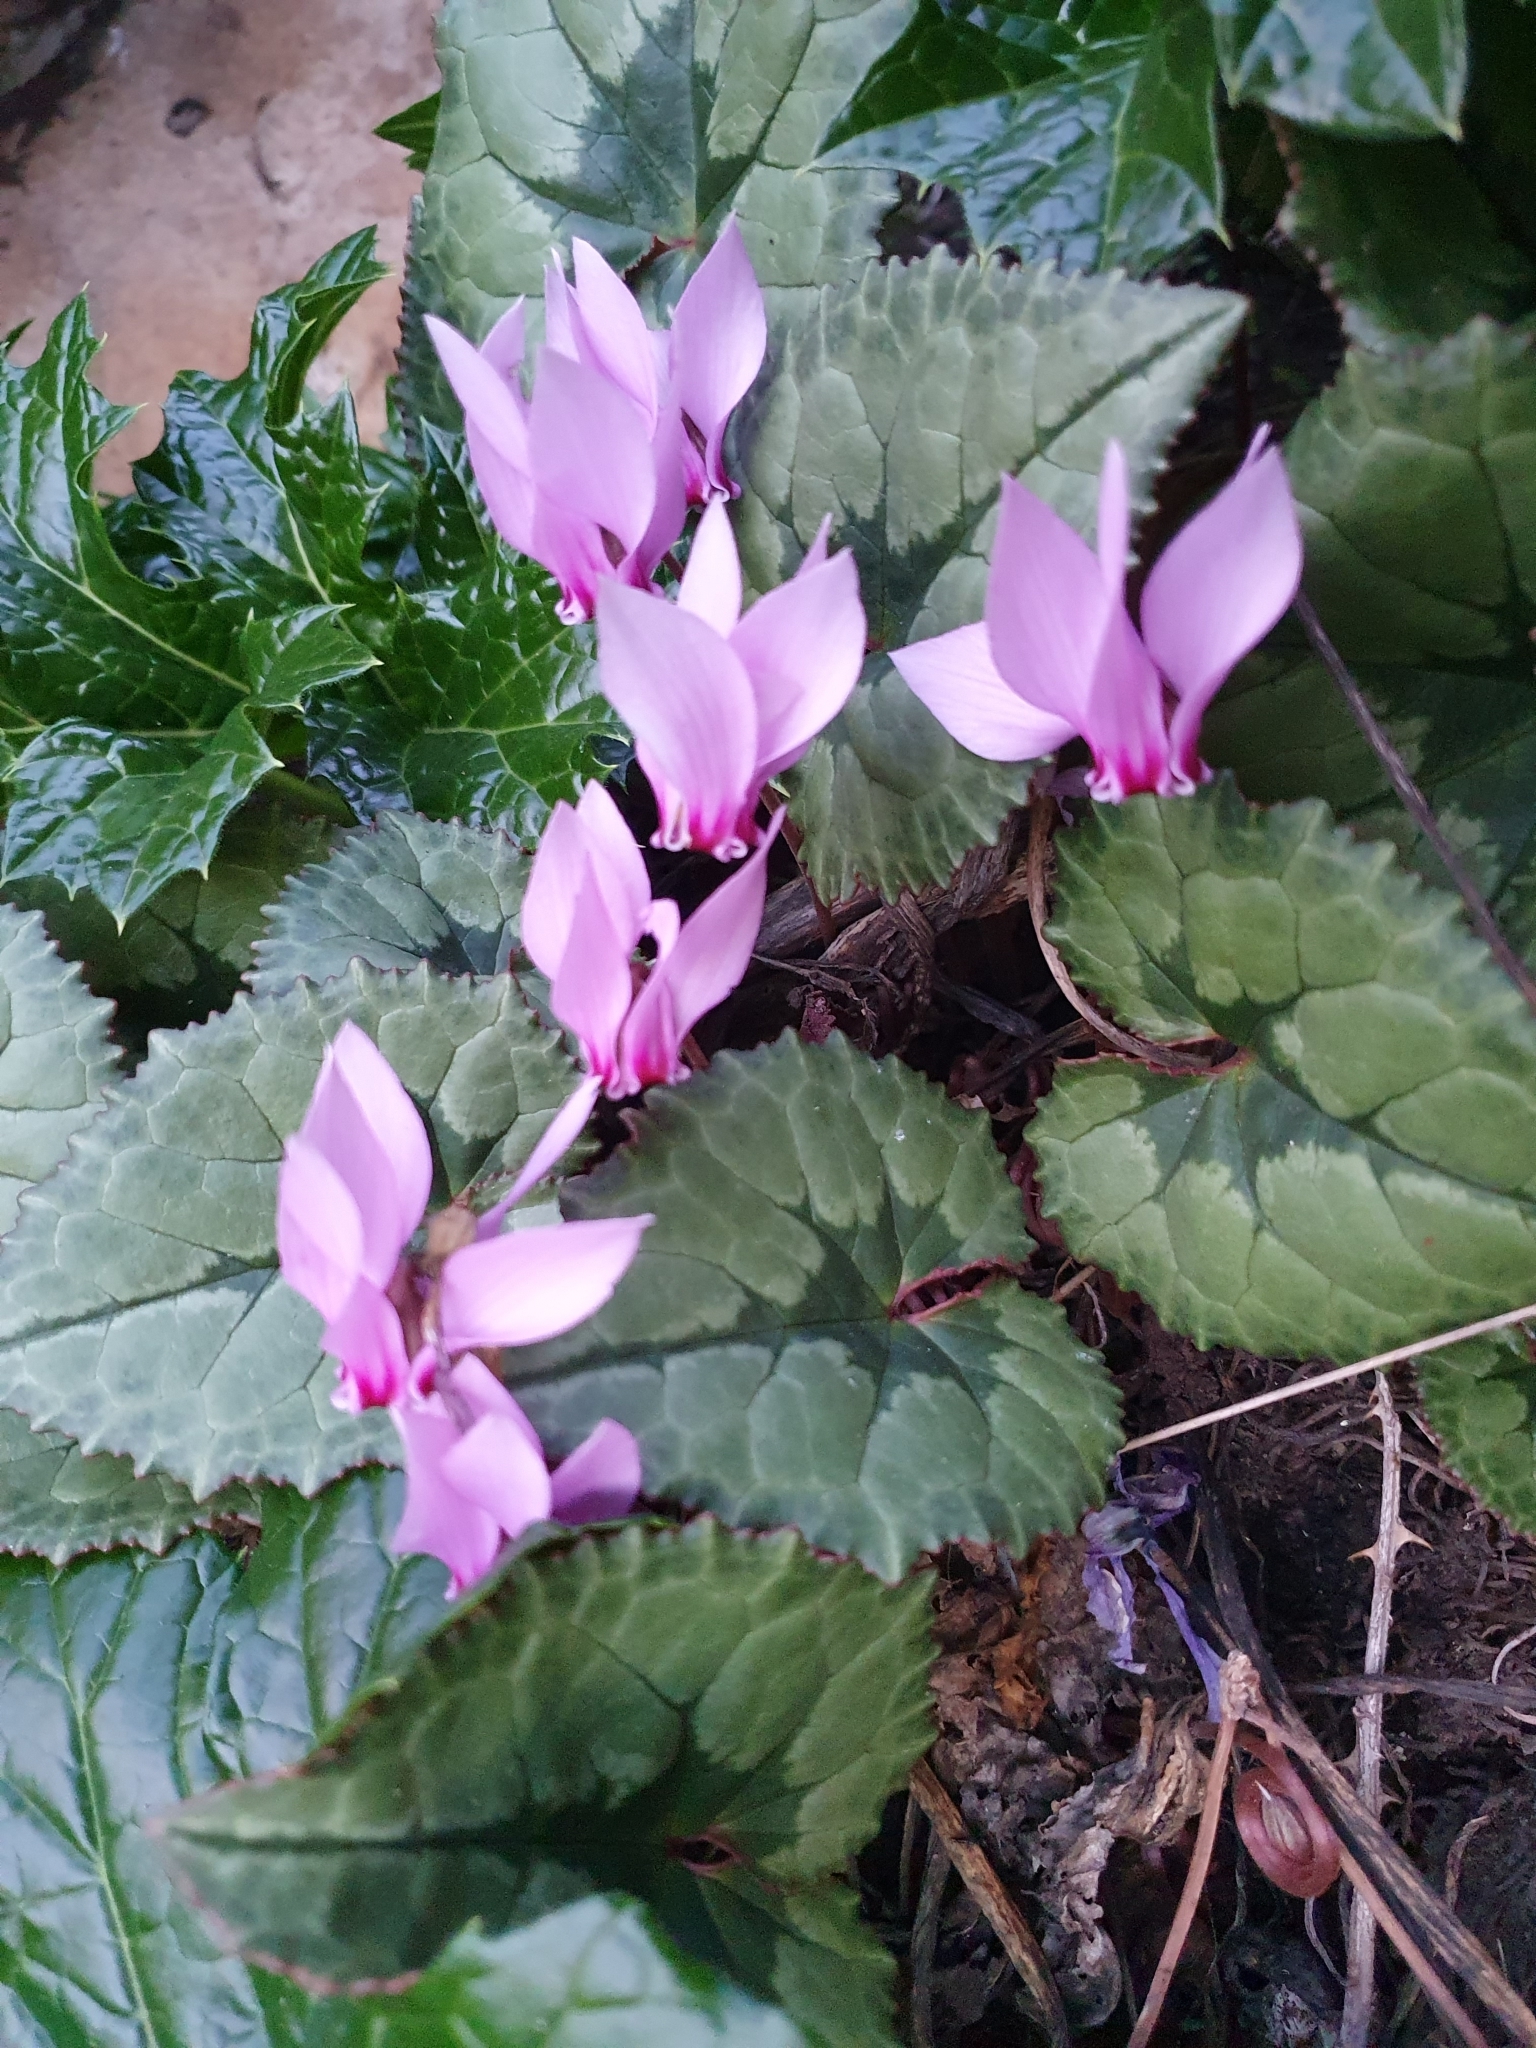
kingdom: Plantae
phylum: Tracheophyta
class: Magnoliopsida
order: Ericales
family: Primulaceae
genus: Cyclamen
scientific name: Cyclamen africanum
